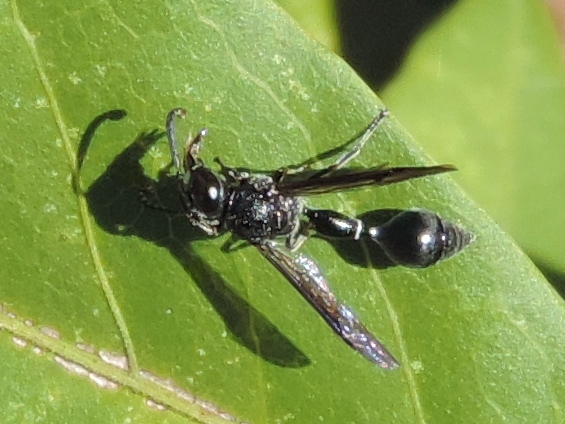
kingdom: Animalia
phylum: Arthropoda
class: Insecta
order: Hymenoptera
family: Eumenidae
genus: Zethus
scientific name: Zethus nigricornis
